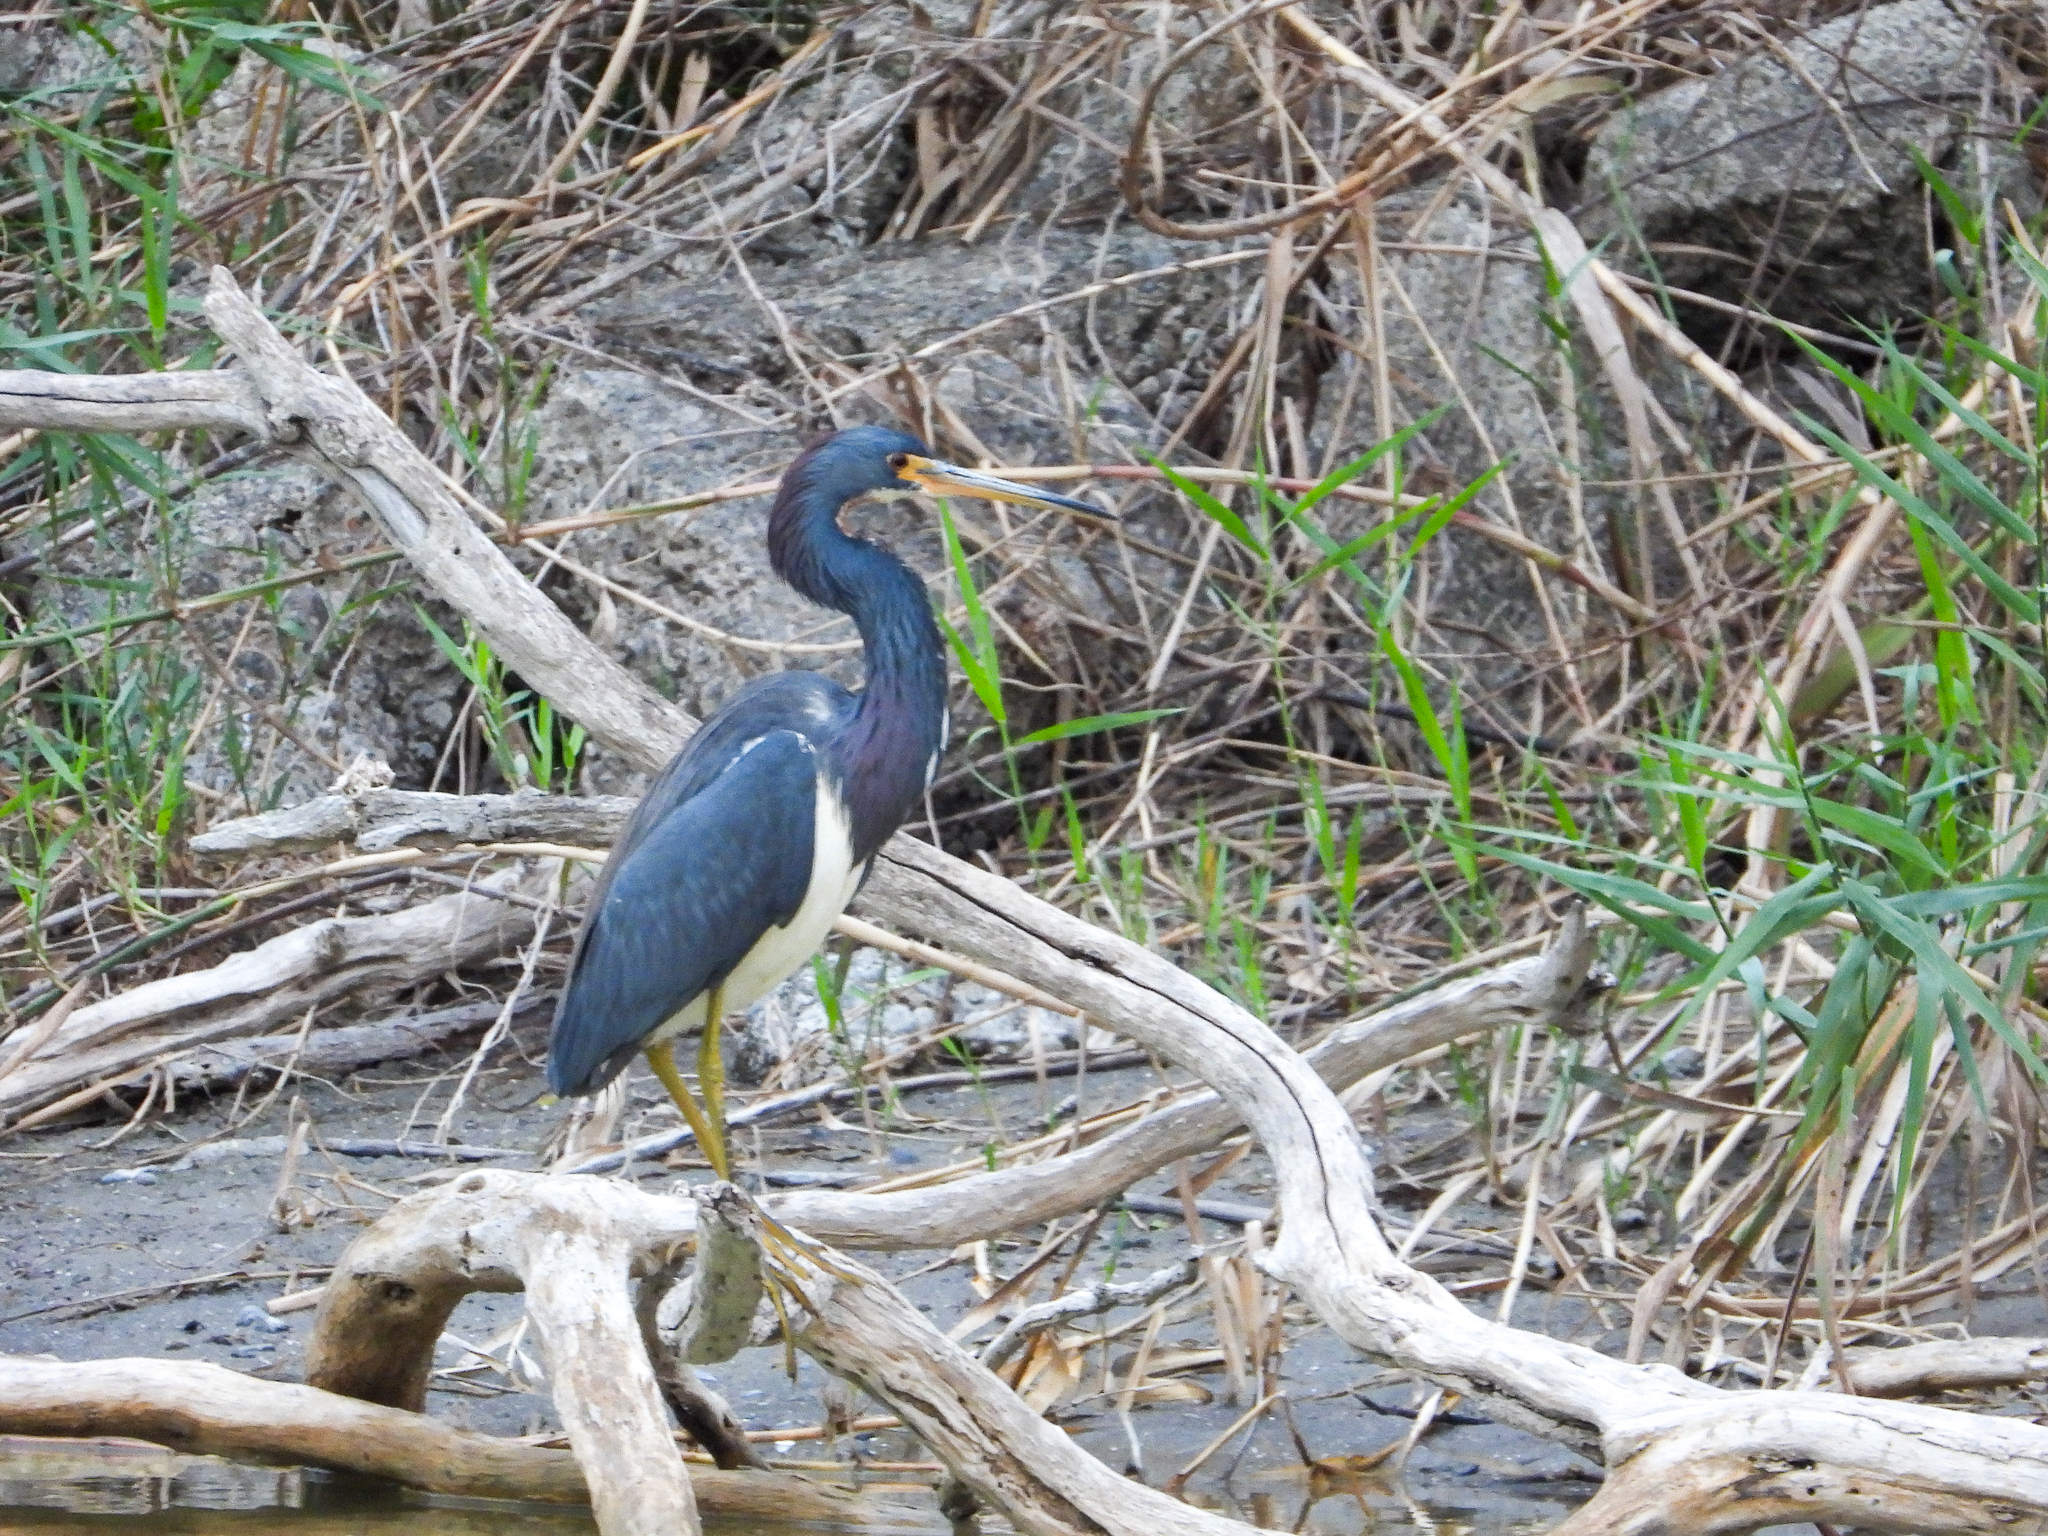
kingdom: Animalia
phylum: Chordata
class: Aves
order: Pelecaniformes
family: Ardeidae
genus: Egretta
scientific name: Egretta tricolor
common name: Tricolored heron
